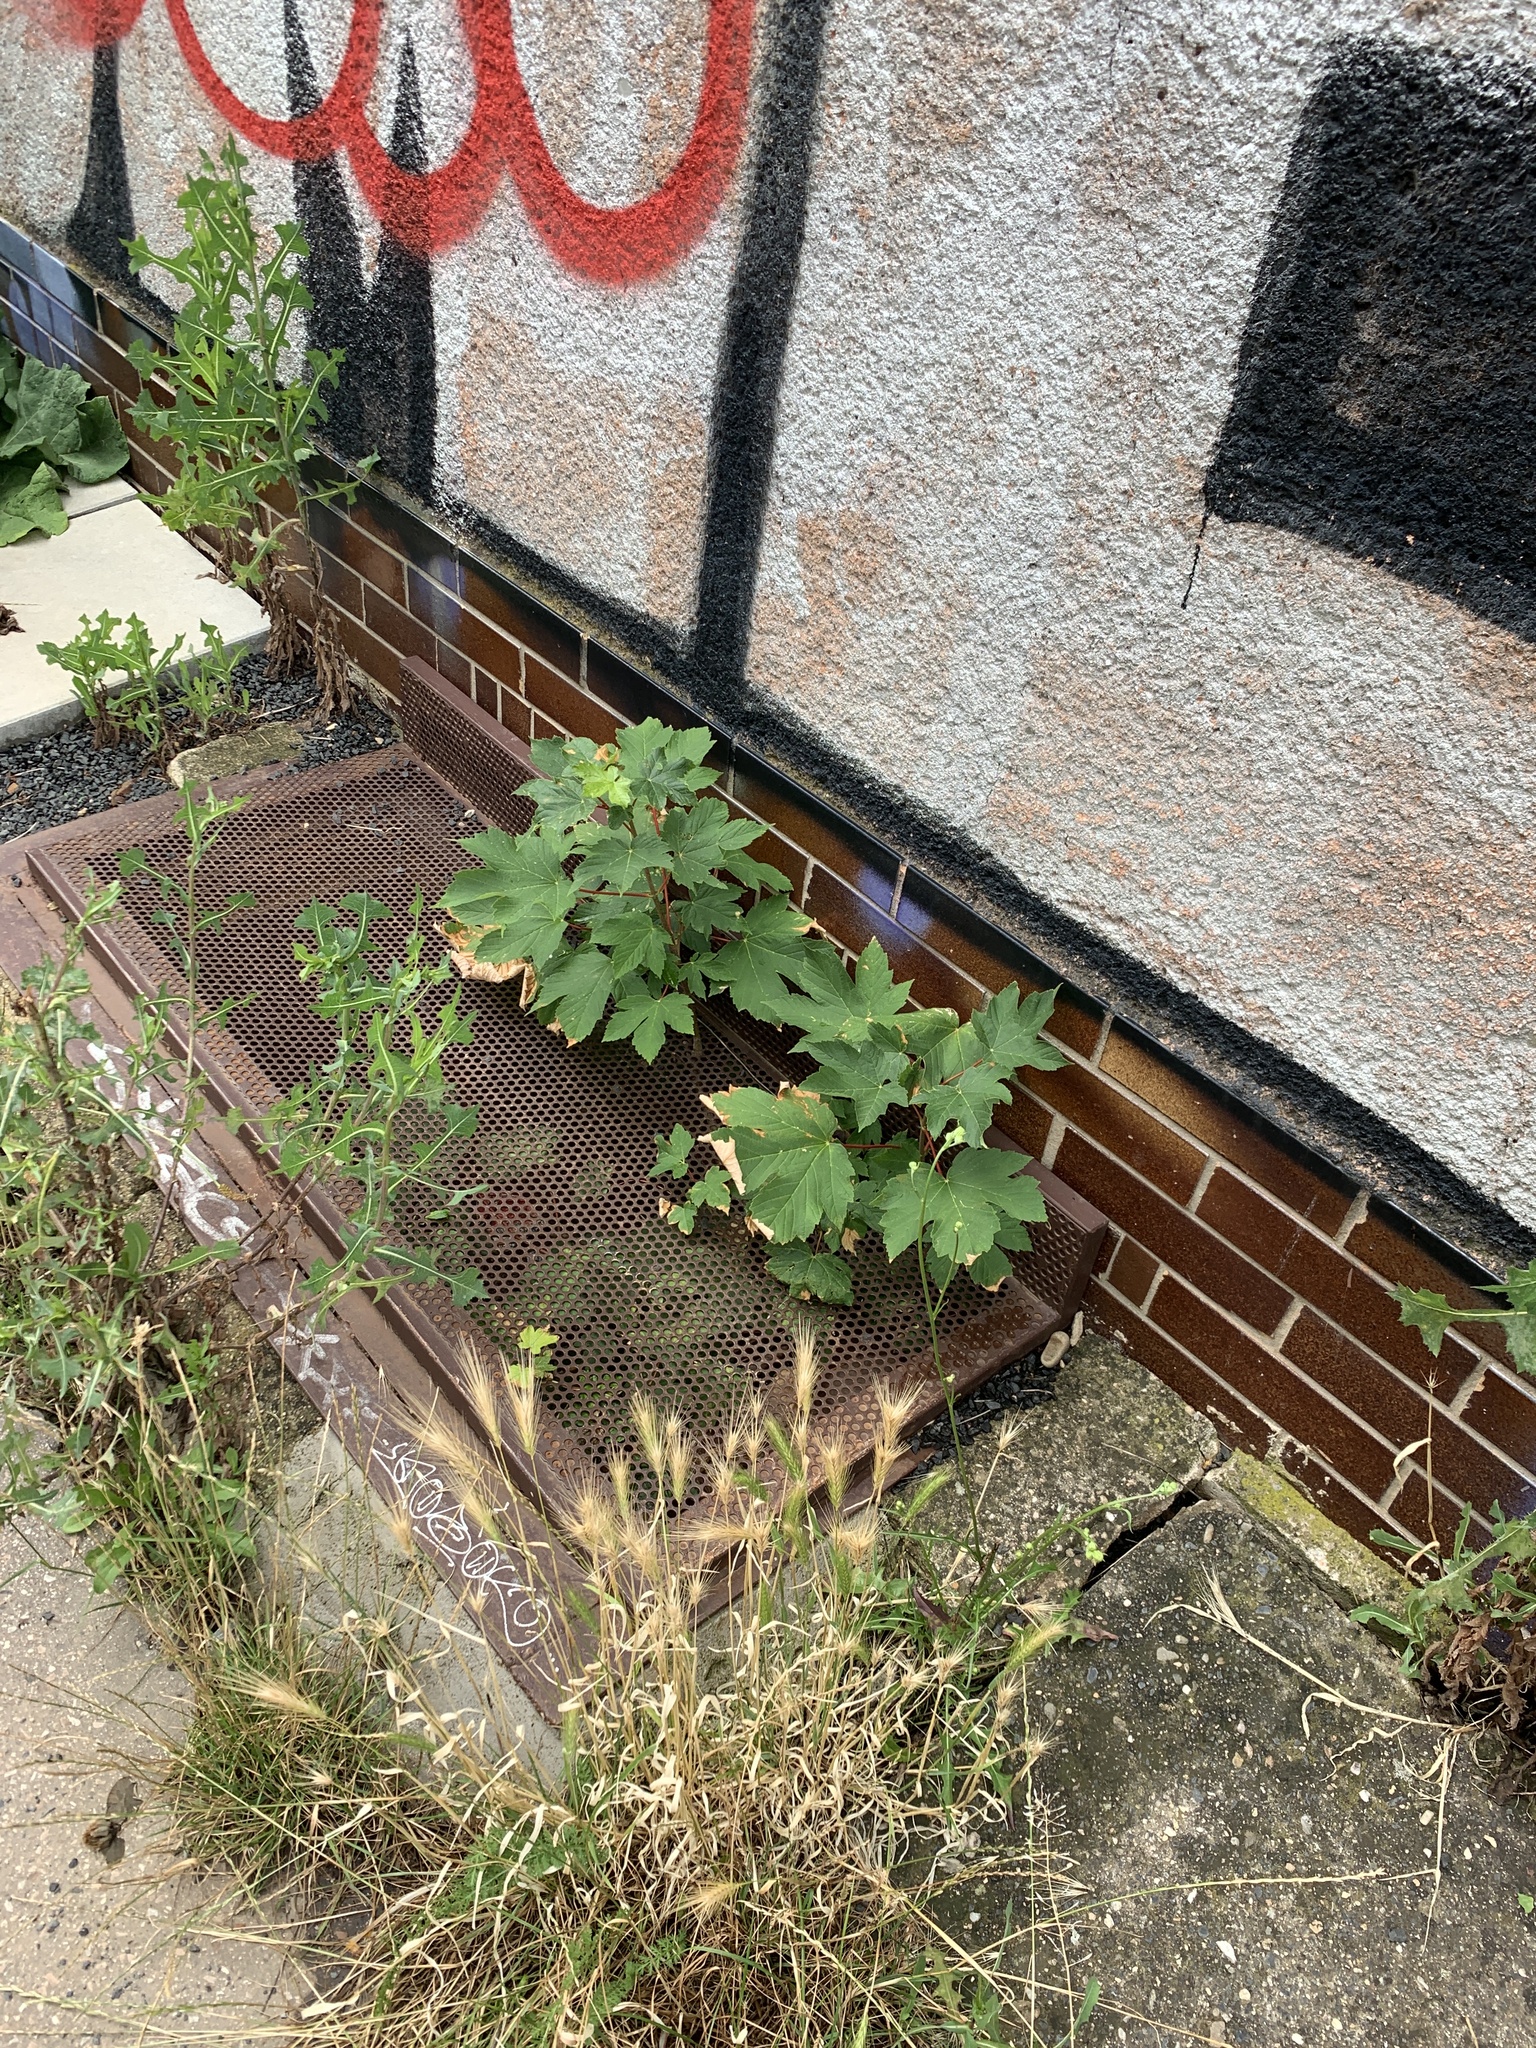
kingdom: Plantae
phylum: Tracheophyta
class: Magnoliopsida
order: Sapindales
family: Sapindaceae
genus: Acer
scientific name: Acer pseudoplatanus
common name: Sycamore
